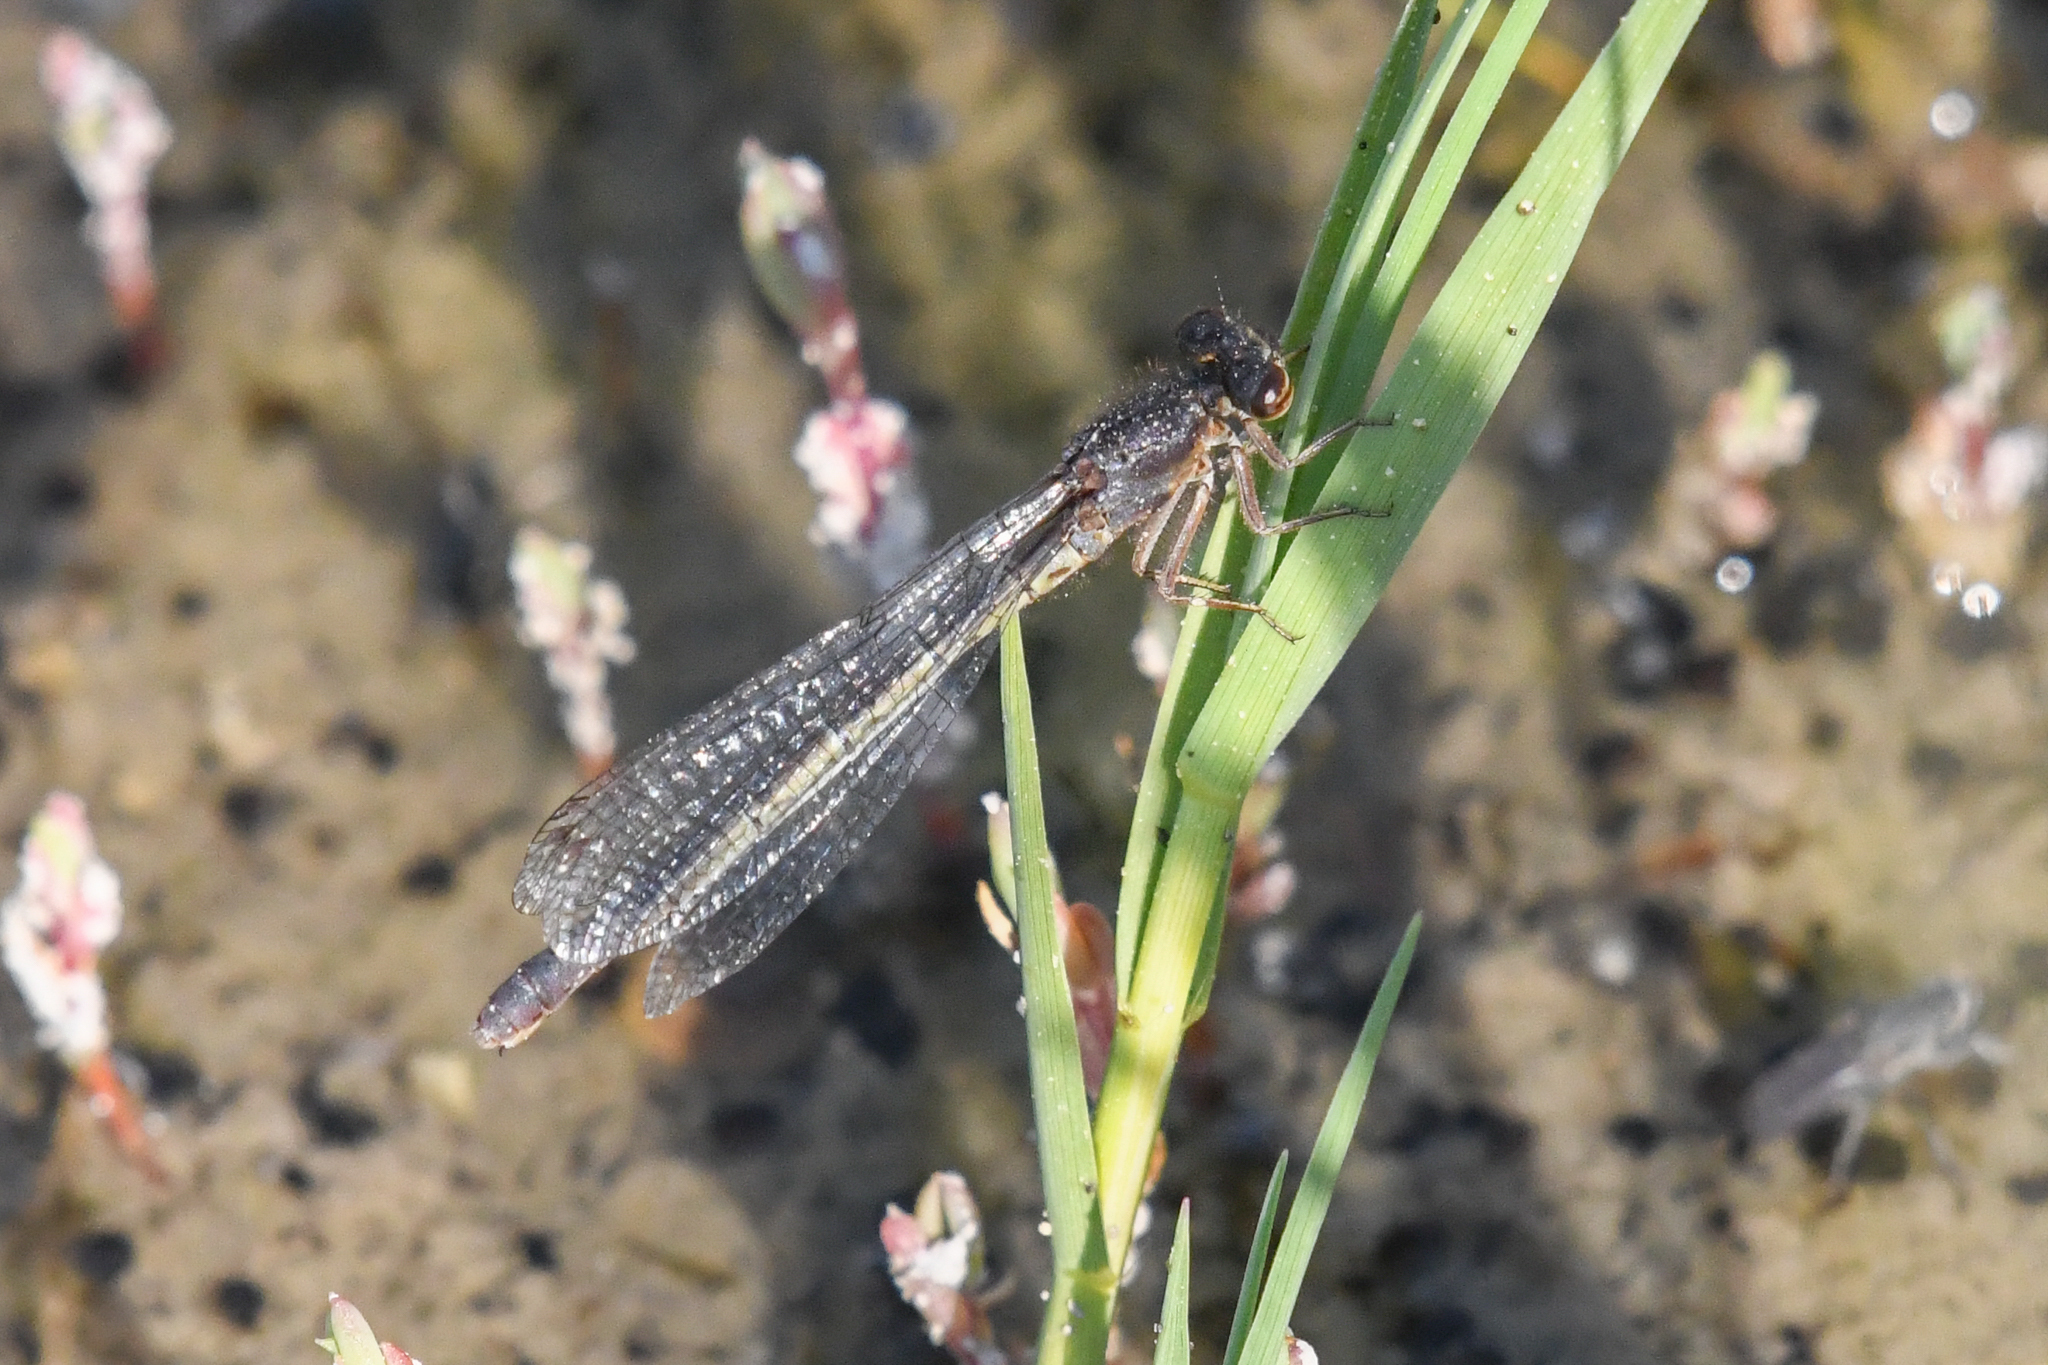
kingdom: Animalia
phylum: Arthropoda
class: Insecta
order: Odonata
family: Coenagrionidae
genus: Amphiagrion
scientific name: Amphiagrion abbreviatum
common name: Western red damsel
